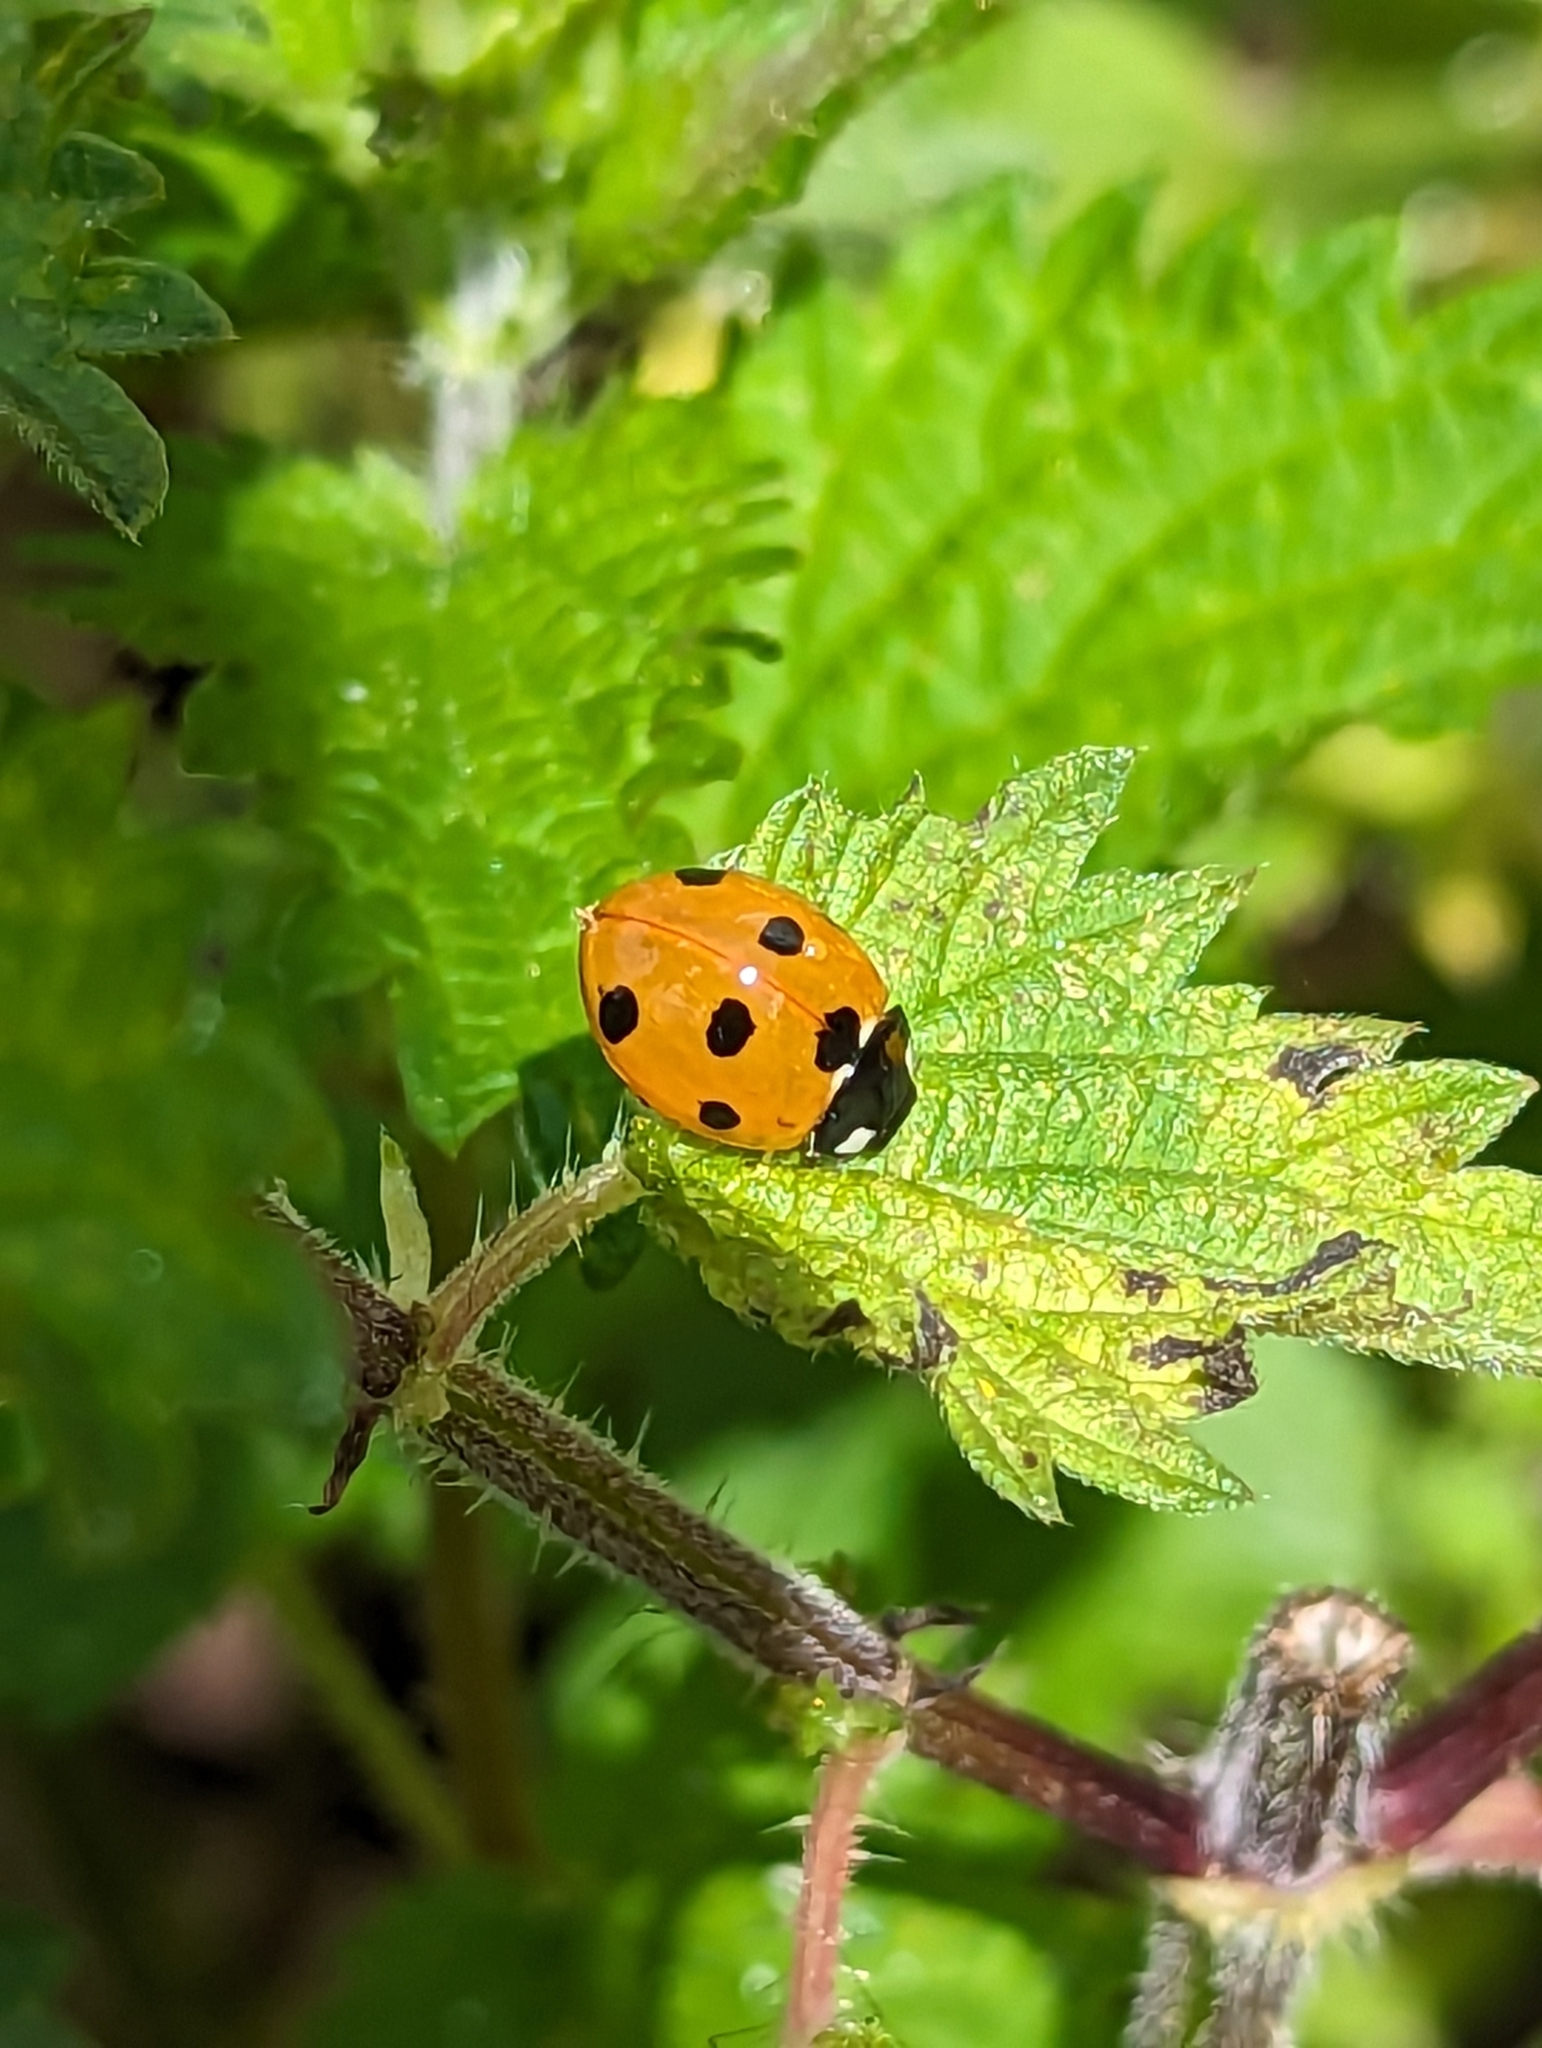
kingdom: Animalia
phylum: Arthropoda
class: Insecta
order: Coleoptera
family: Coccinellidae
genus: Coccinella
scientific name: Coccinella septempunctata
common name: Sevenspotted lady beetle
